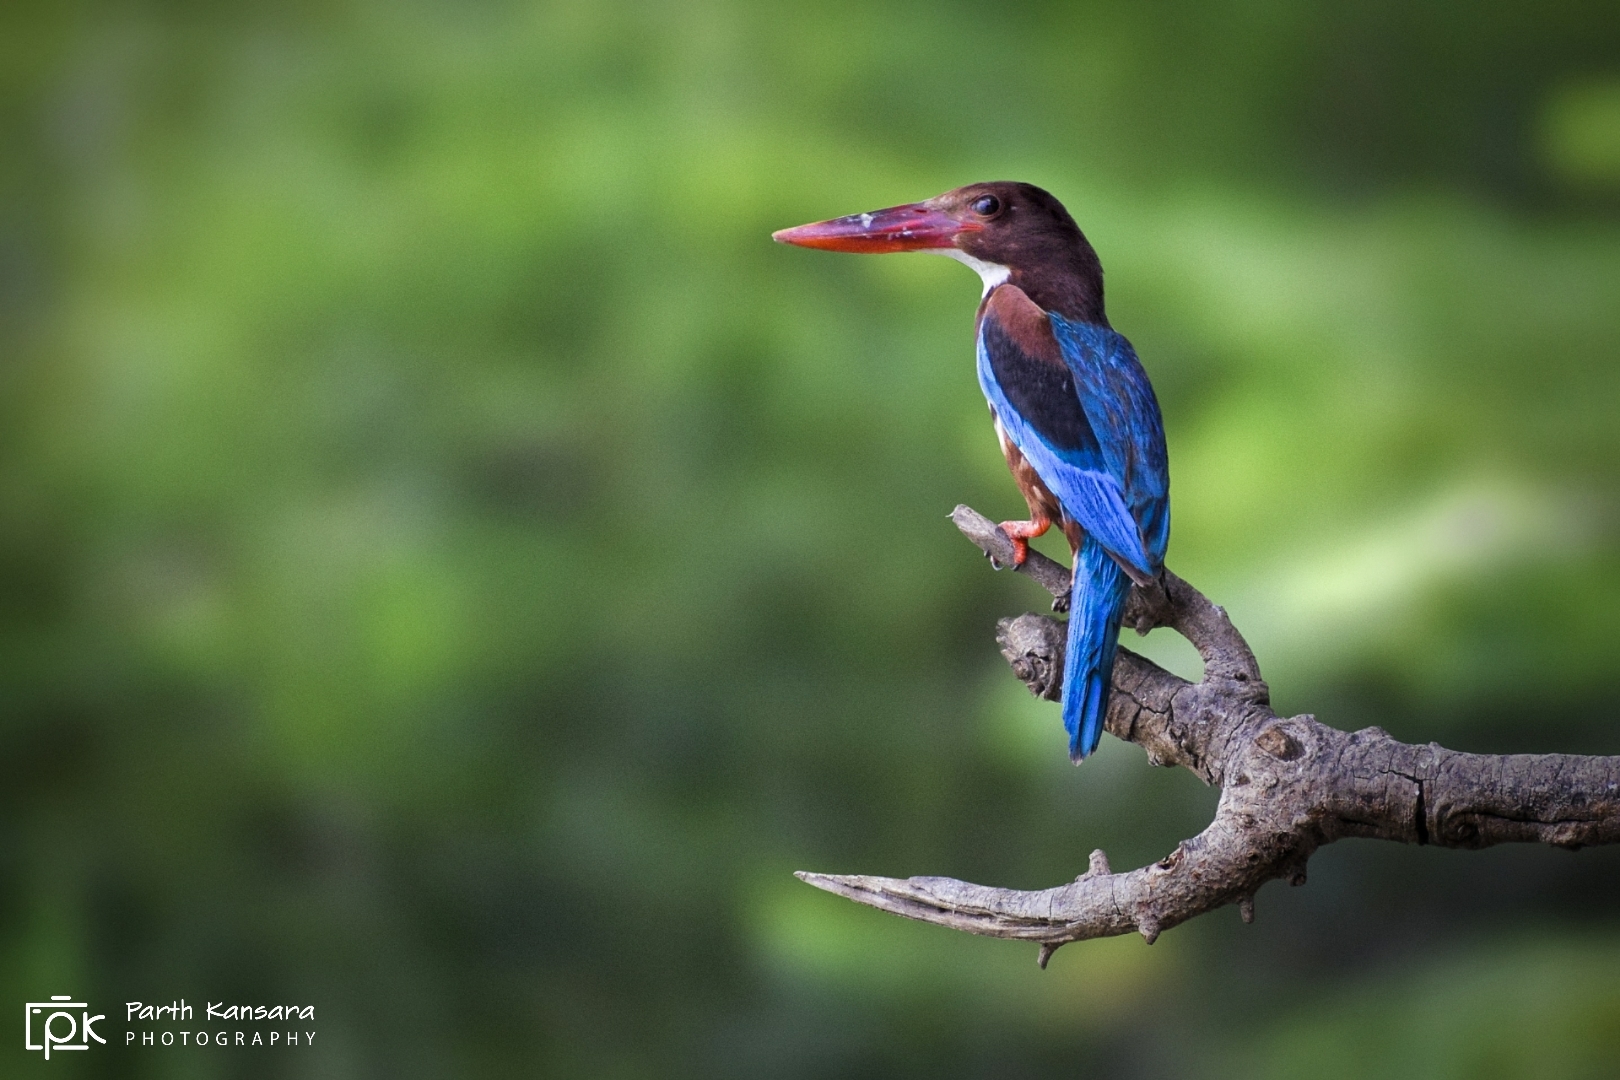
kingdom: Animalia
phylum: Chordata
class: Aves
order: Coraciiformes
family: Alcedinidae
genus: Halcyon
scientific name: Halcyon smyrnensis
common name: White-throated kingfisher
